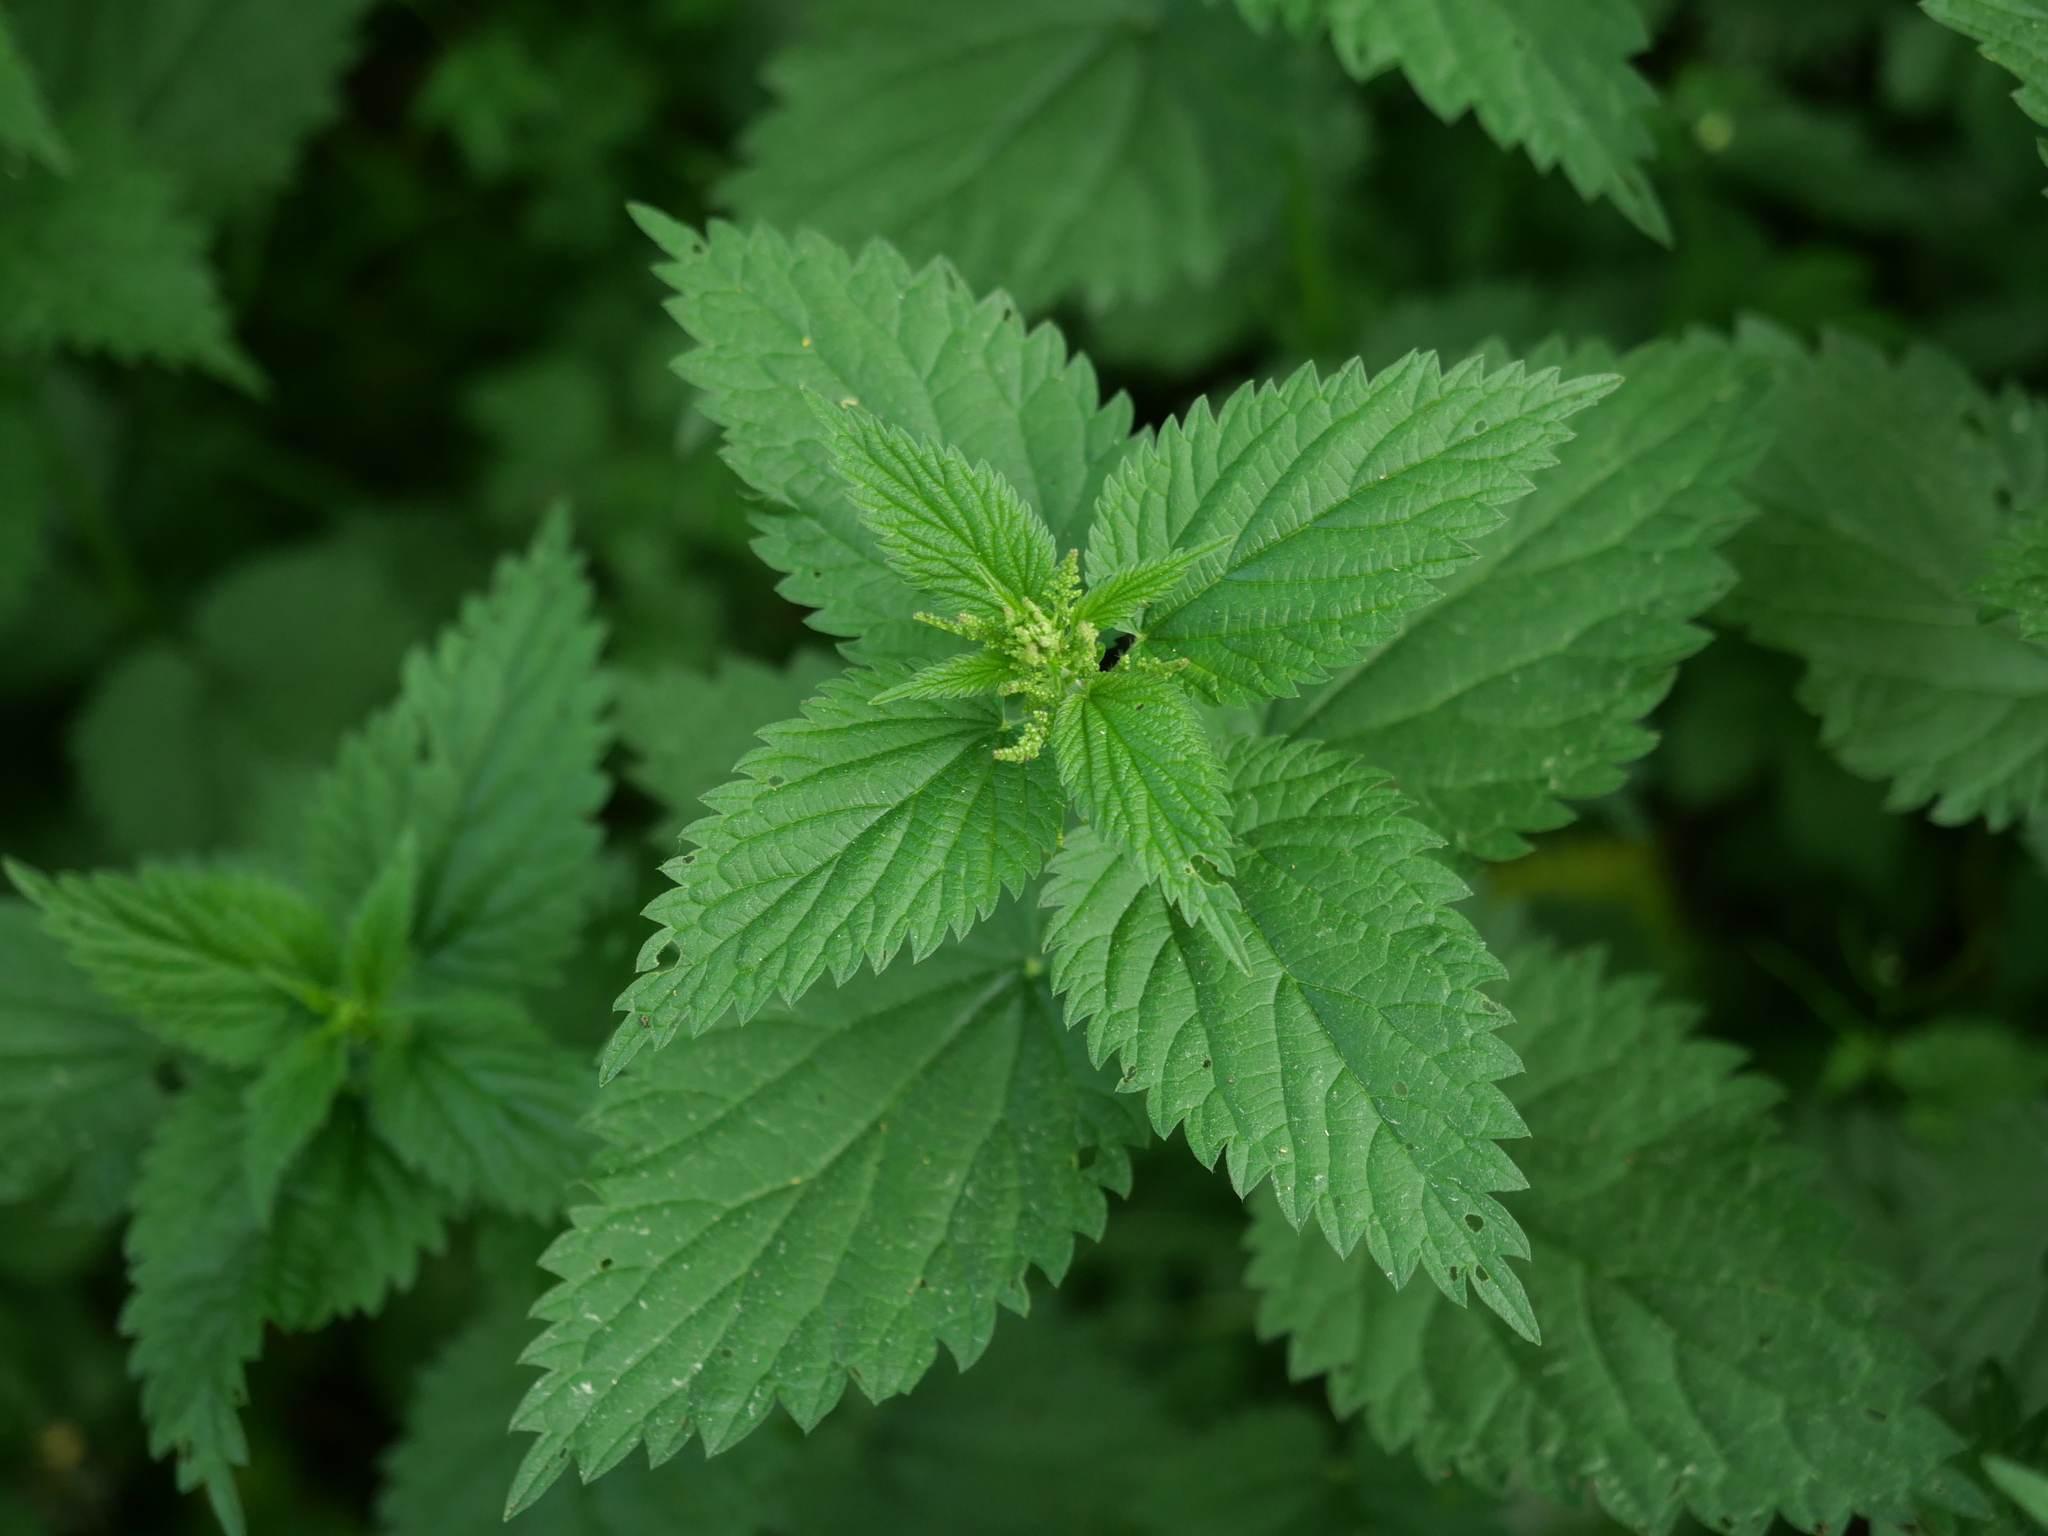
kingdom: Plantae
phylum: Tracheophyta
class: Magnoliopsida
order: Rosales
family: Urticaceae
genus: Urtica
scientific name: Urtica dioica
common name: Common nettle
